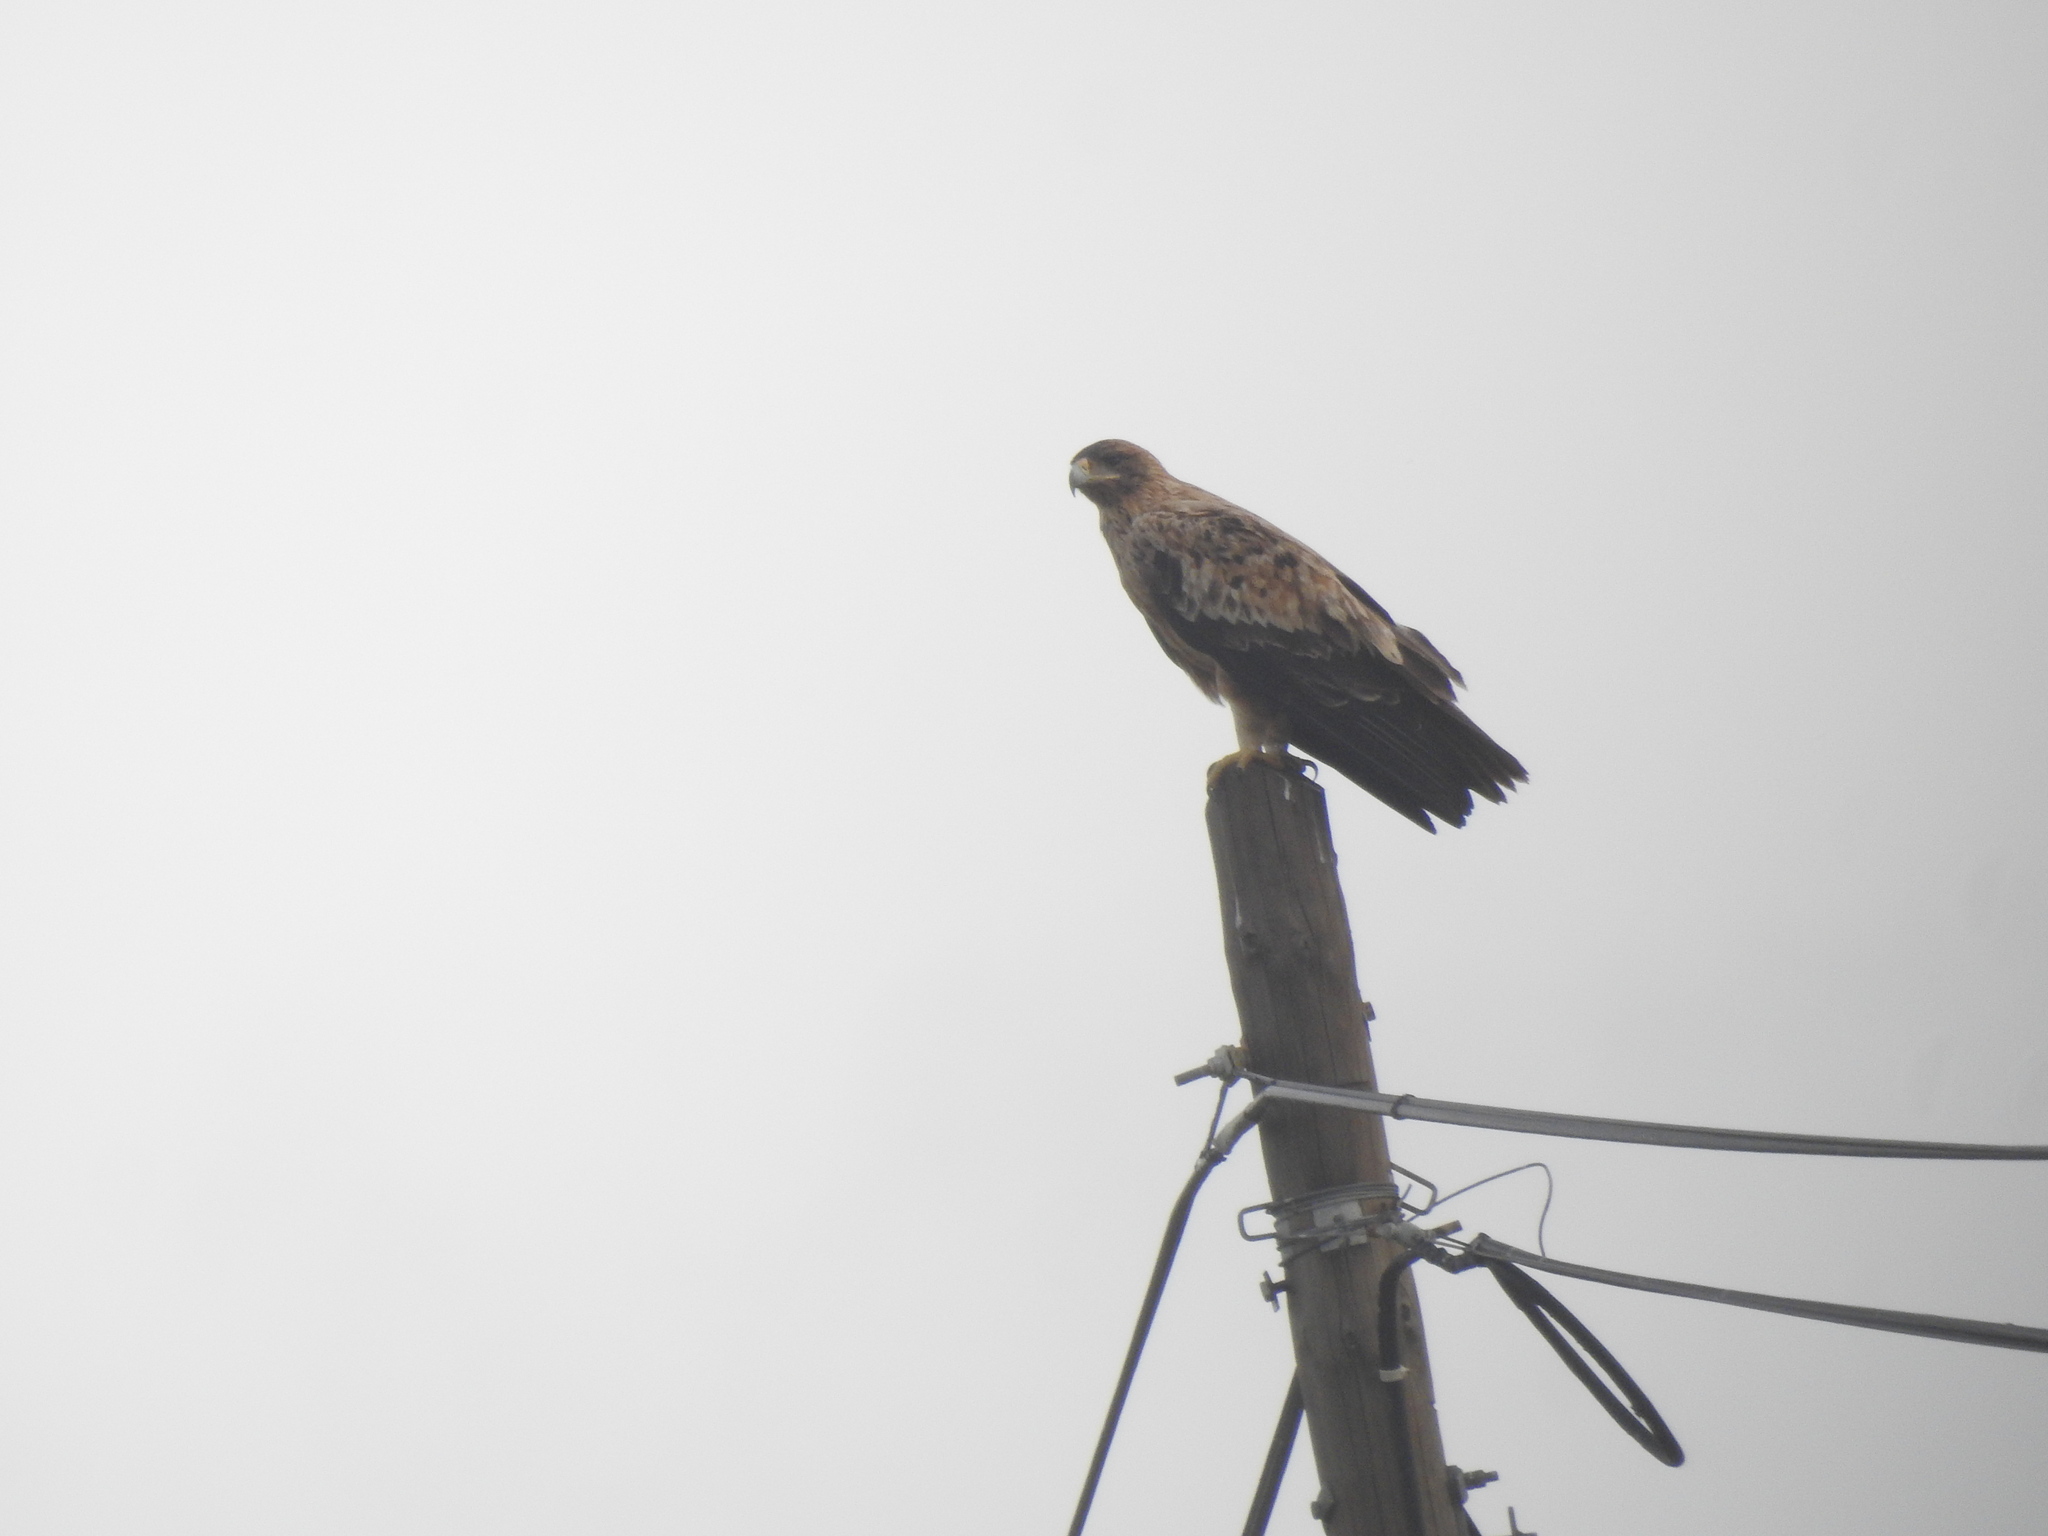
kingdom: Animalia
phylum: Chordata
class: Aves
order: Accipitriformes
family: Accipitridae
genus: Aquila
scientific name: Aquila adalberti
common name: Spanish imperial eagle
